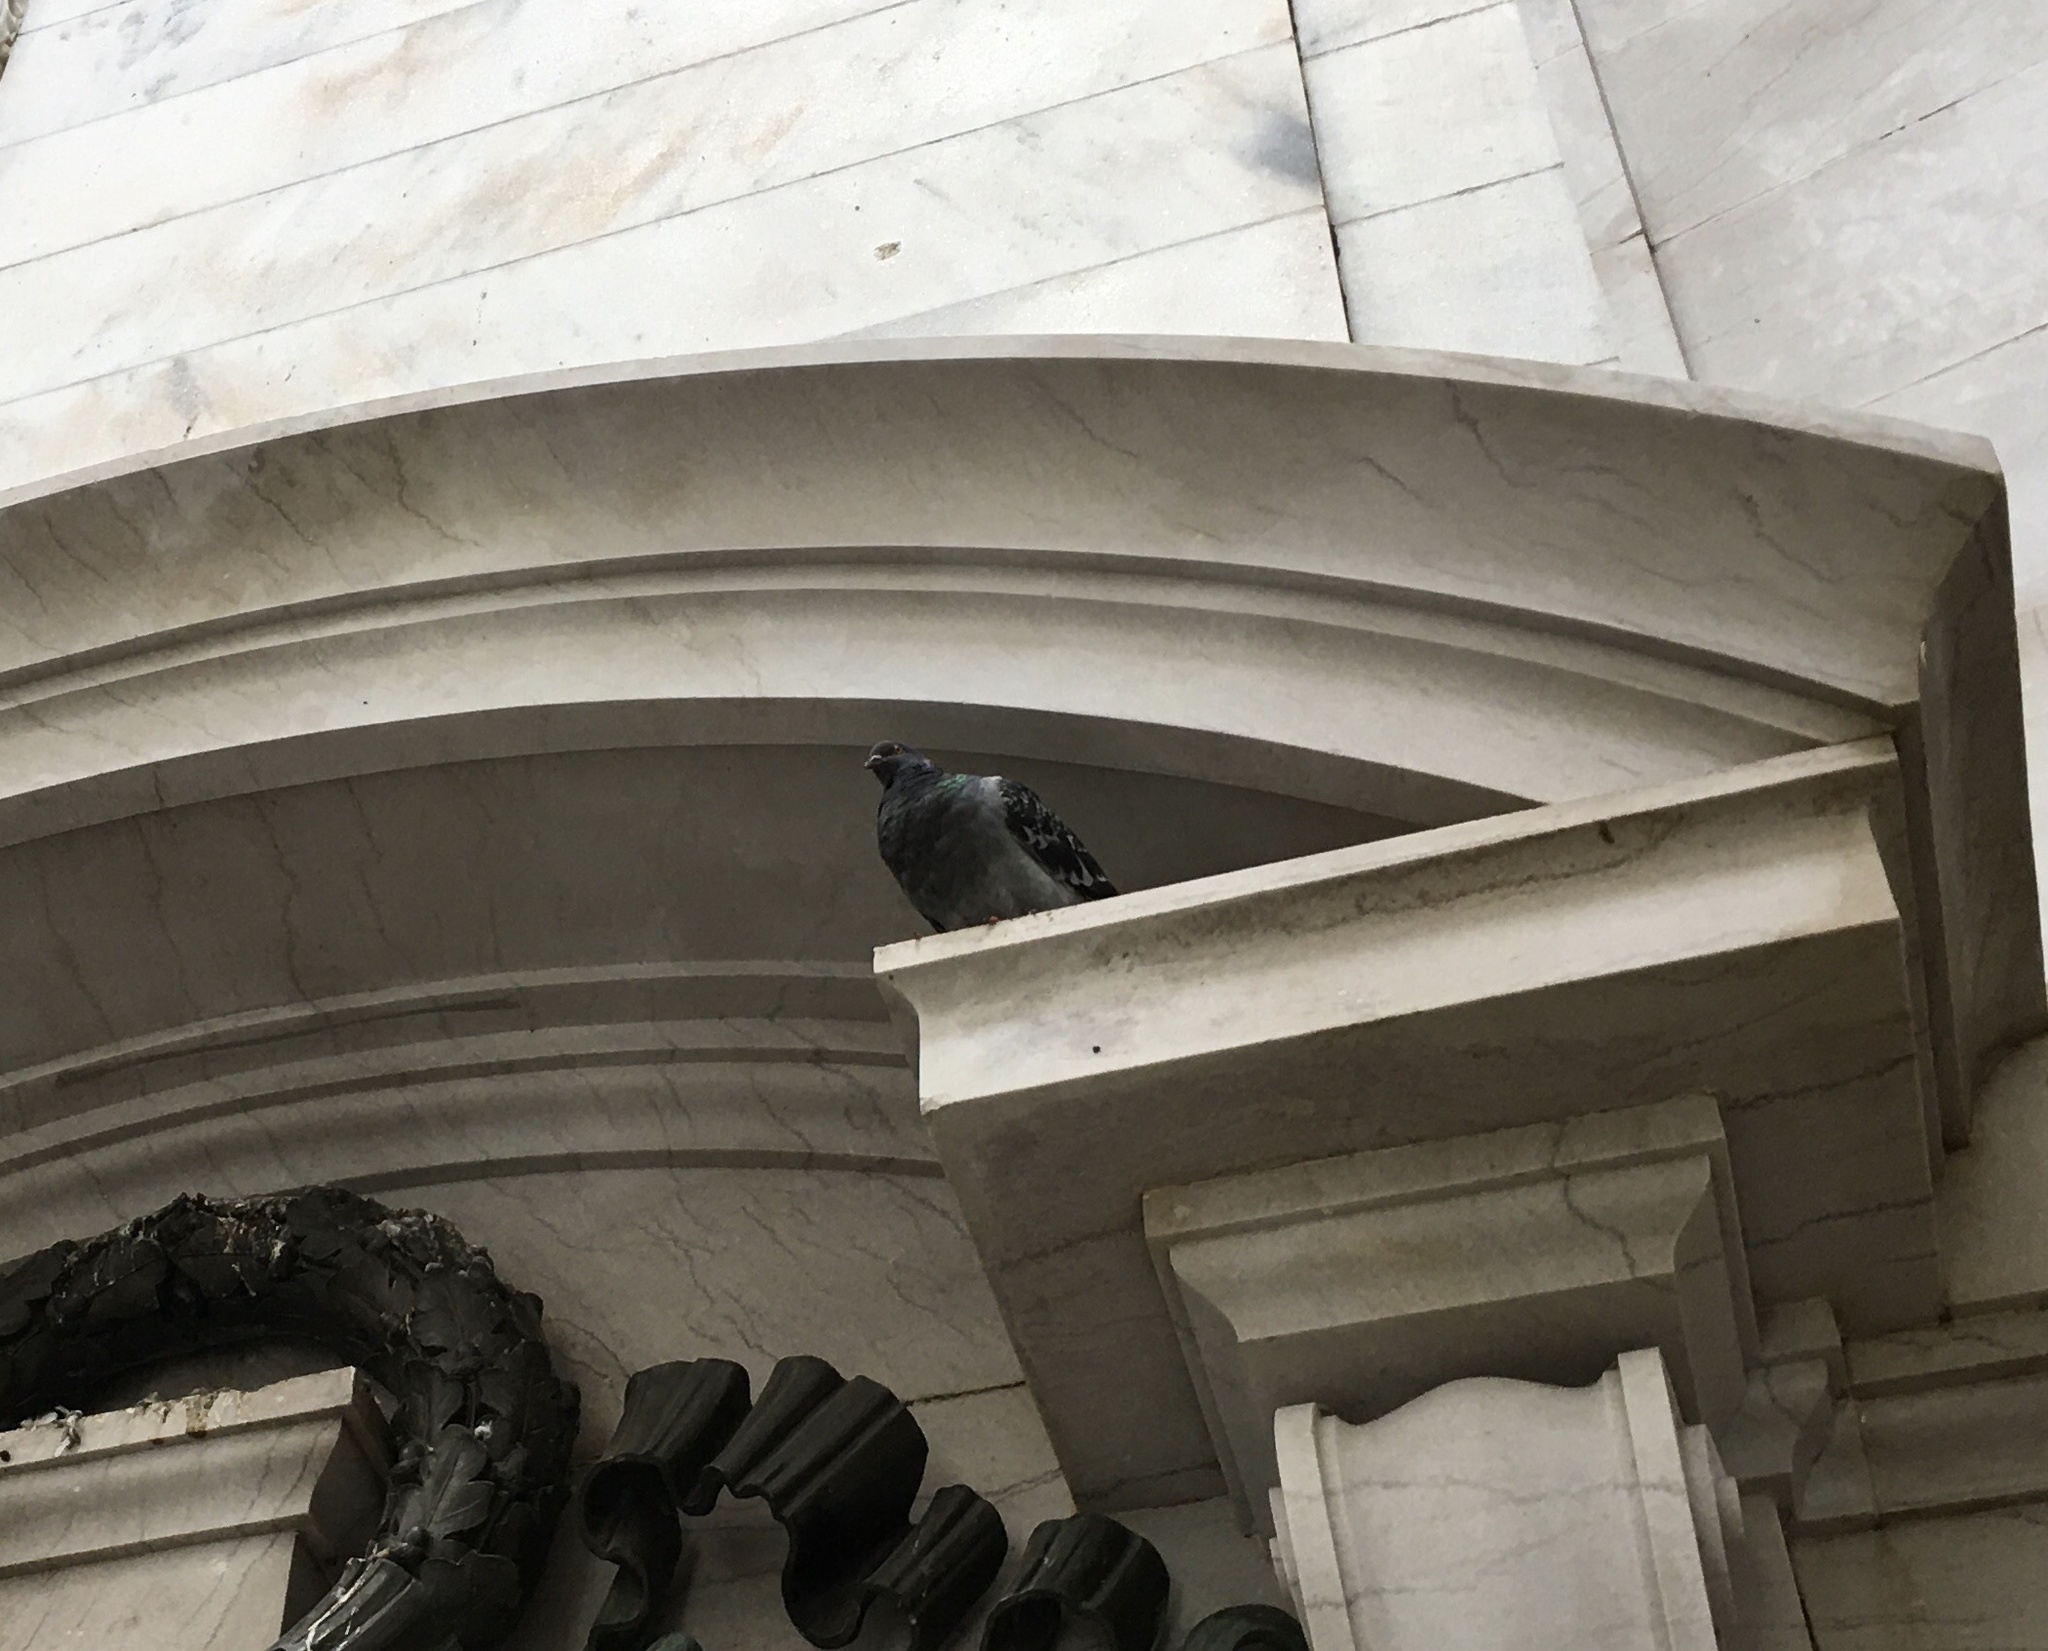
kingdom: Animalia
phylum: Chordata
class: Aves
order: Columbiformes
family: Columbidae
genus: Columba
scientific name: Columba livia
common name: Rock pigeon
